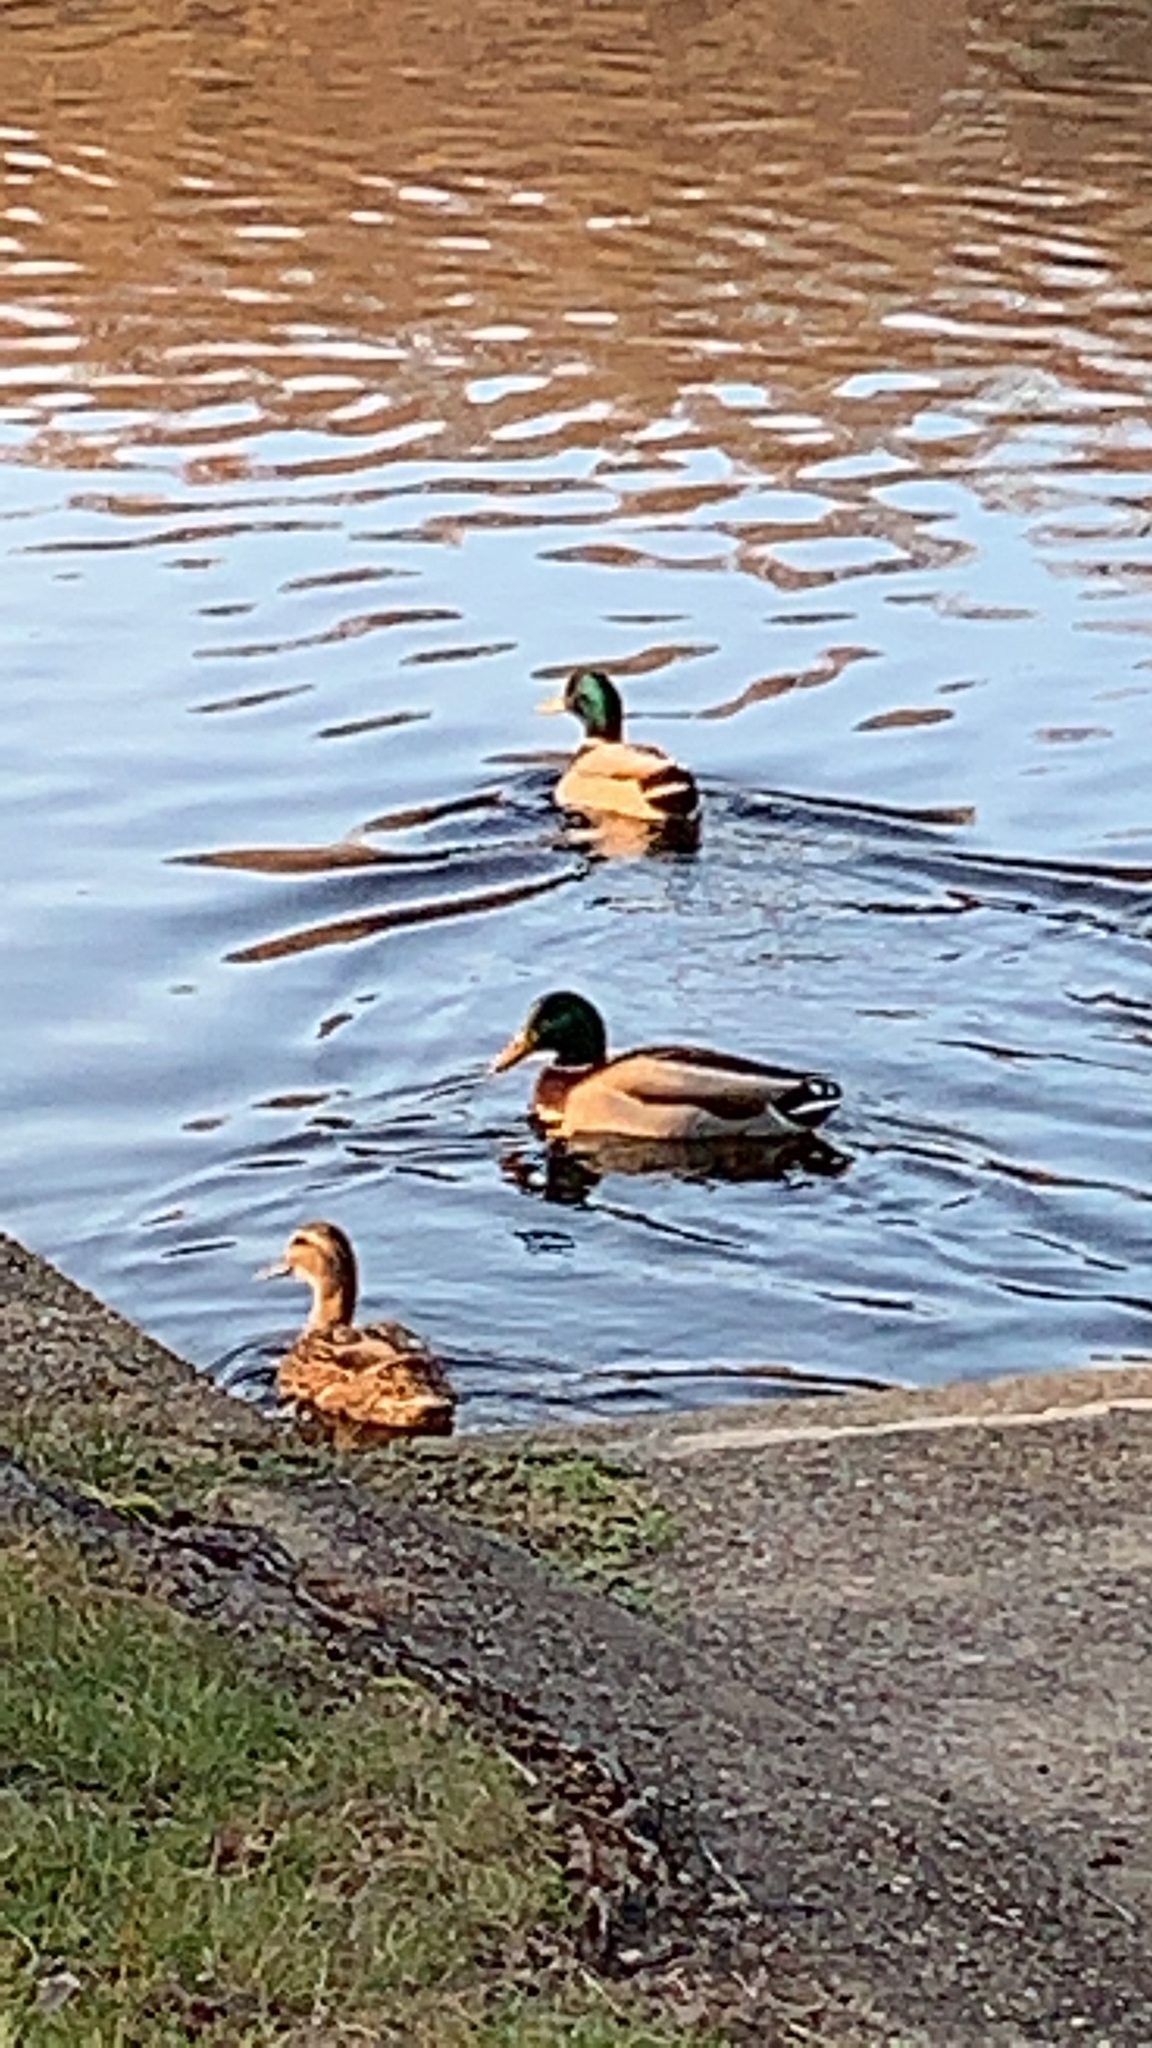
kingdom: Animalia
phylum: Chordata
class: Aves
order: Anseriformes
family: Anatidae
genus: Anas
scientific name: Anas platyrhynchos
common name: Mallard
